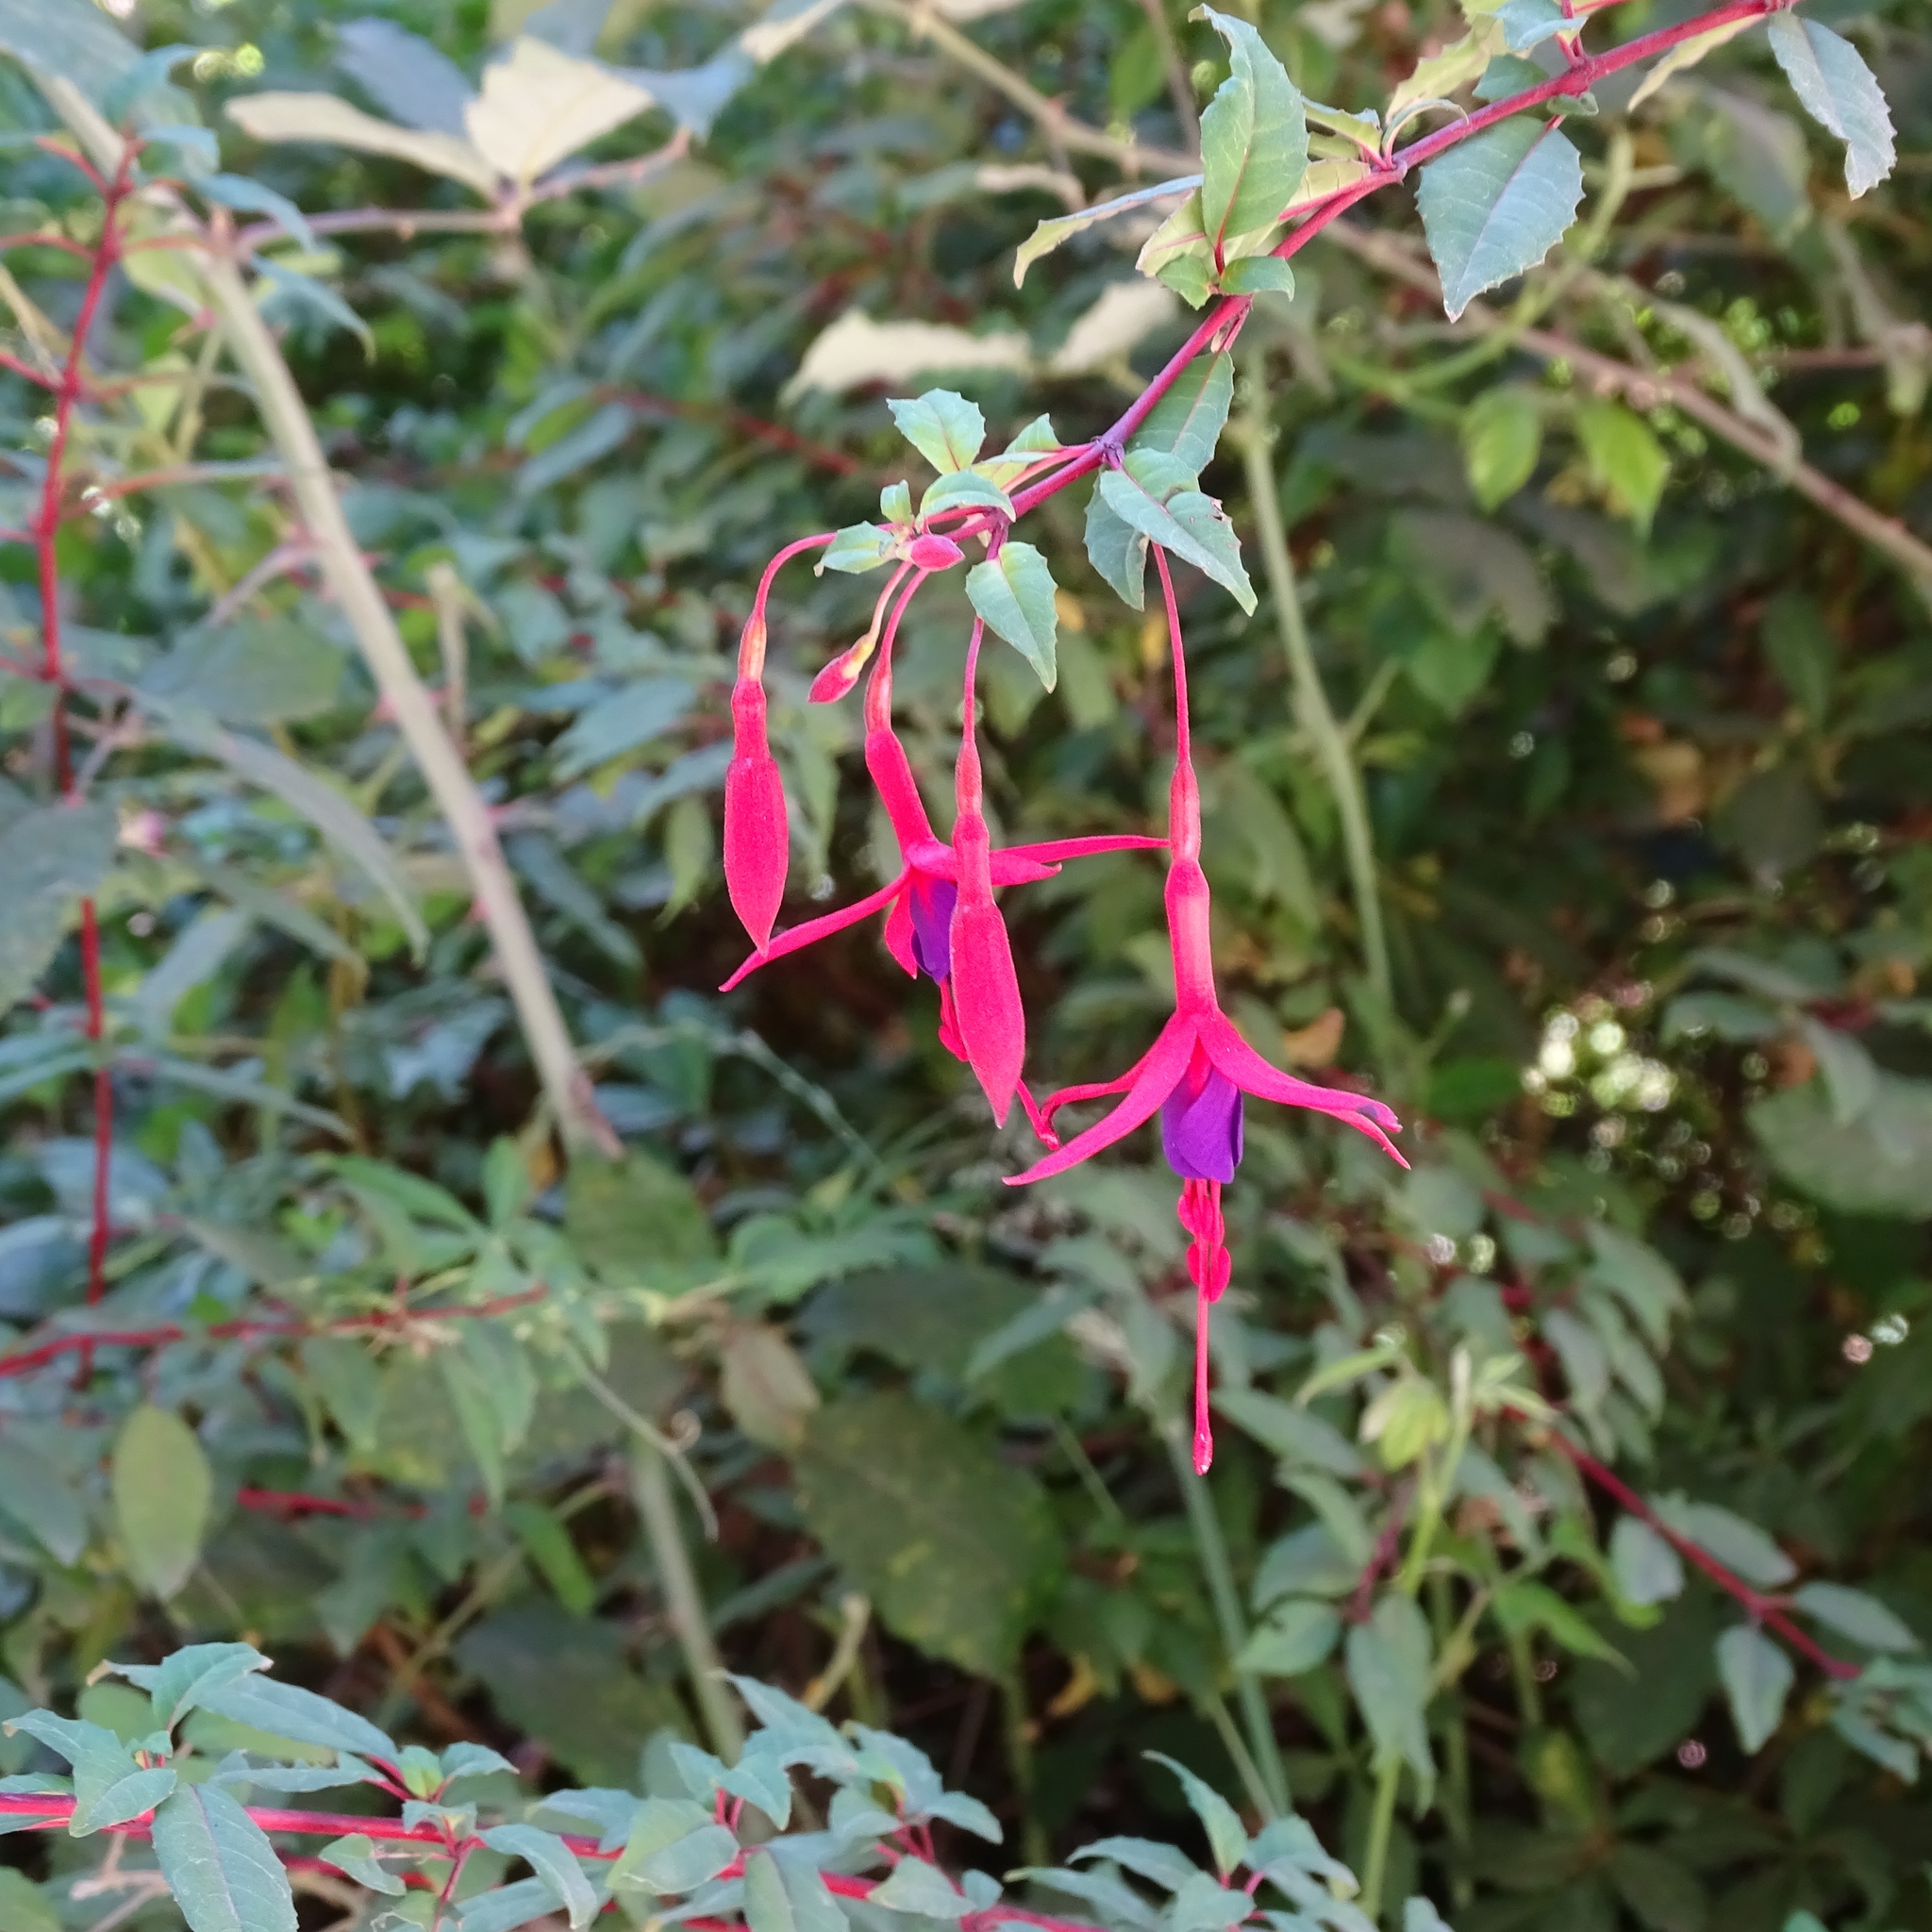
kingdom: Plantae
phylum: Tracheophyta
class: Magnoliopsida
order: Myrtales
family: Onagraceae
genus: Fuchsia
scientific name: Fuchsia magellanica
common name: Hardy fuchsia
